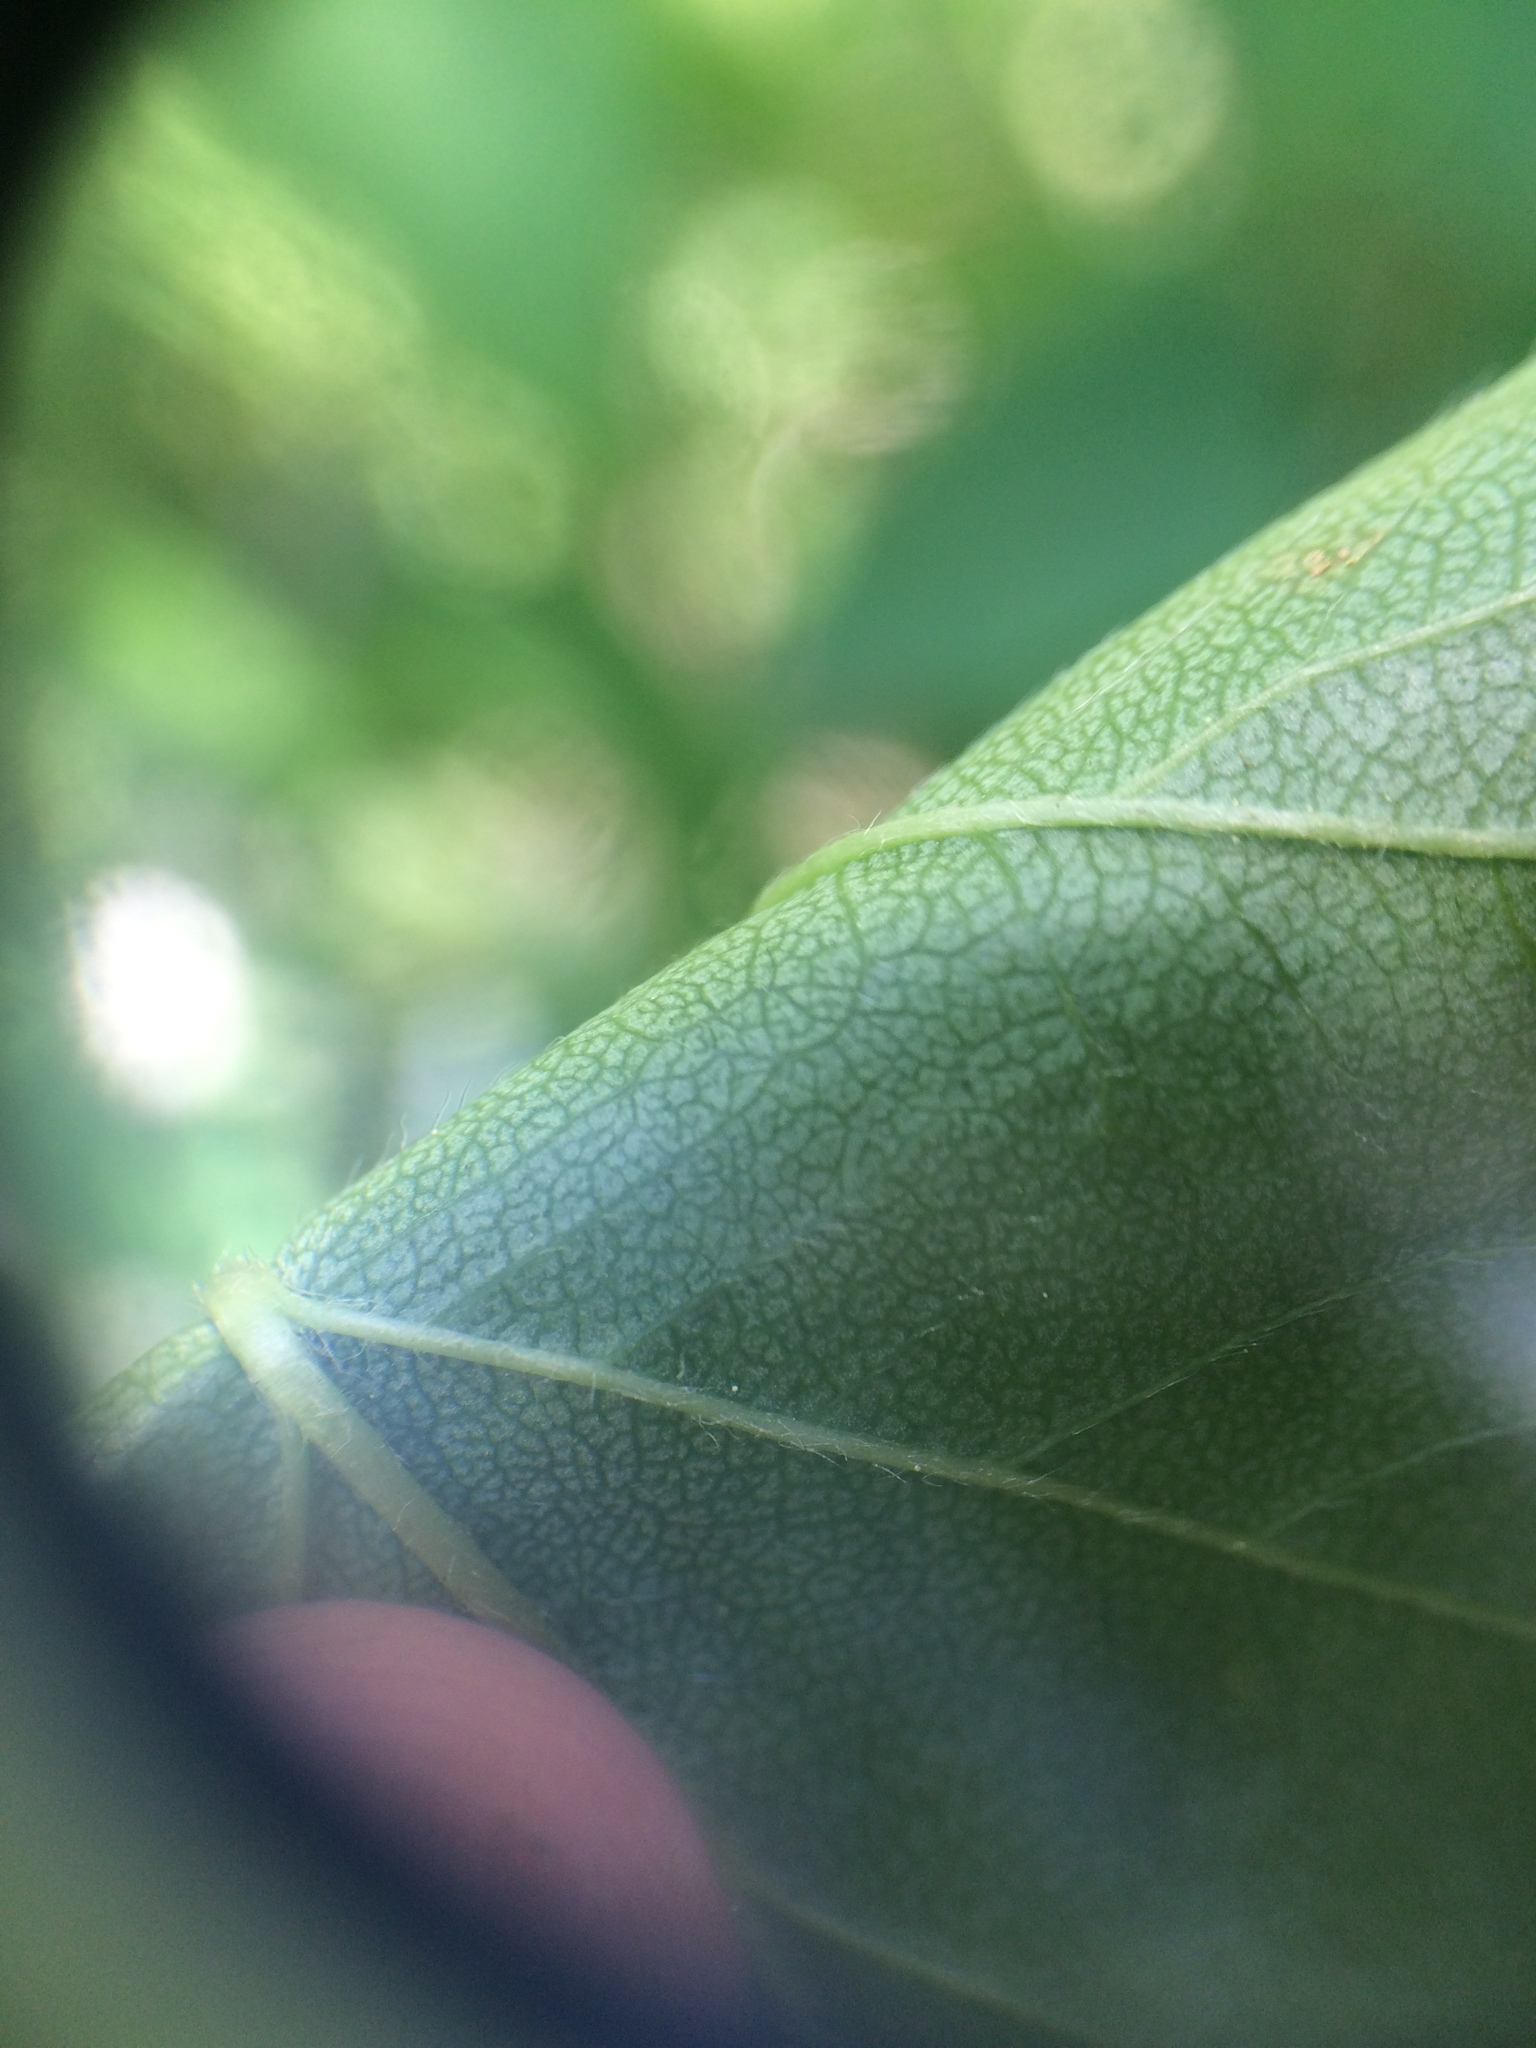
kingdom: Plantae
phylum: Tracheophyta
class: Magnoliopsida
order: Rosales
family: Rosaceae
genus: Crataegus
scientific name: Crataegus irrasa
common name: Unshorn hawthorn
